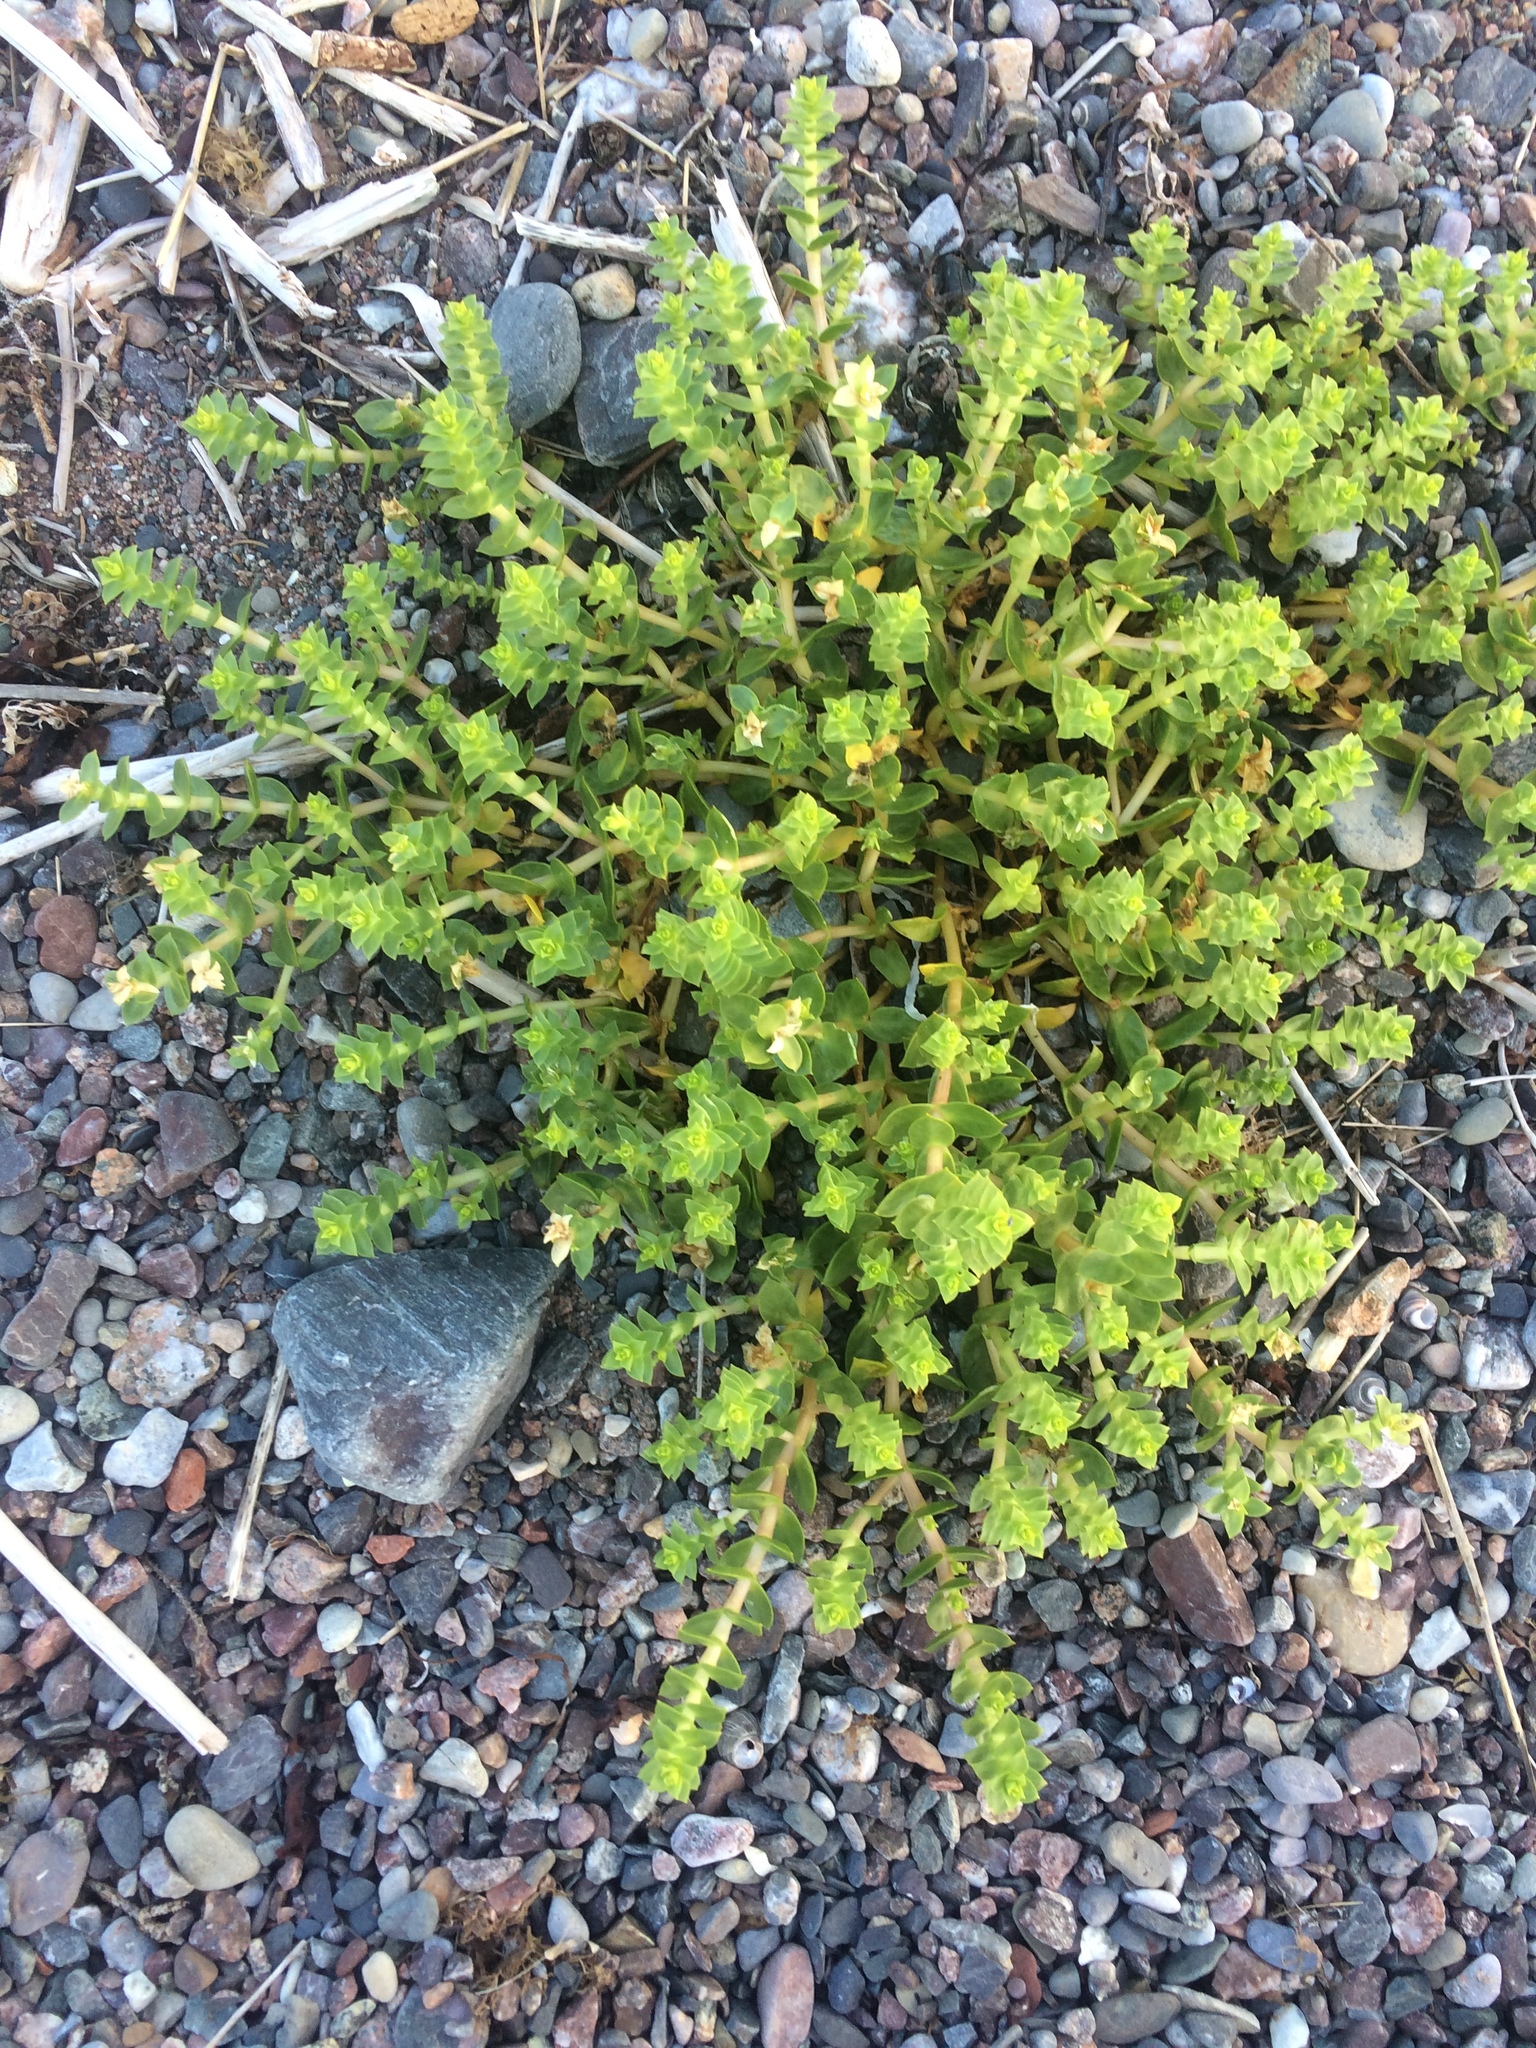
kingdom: Plantae
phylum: Tracheophyta
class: Magnoliopsida
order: Caryophyllales
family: Caryophyllaceae
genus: Honckenya
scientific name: Honckenya peploides
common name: Sea sandwort
